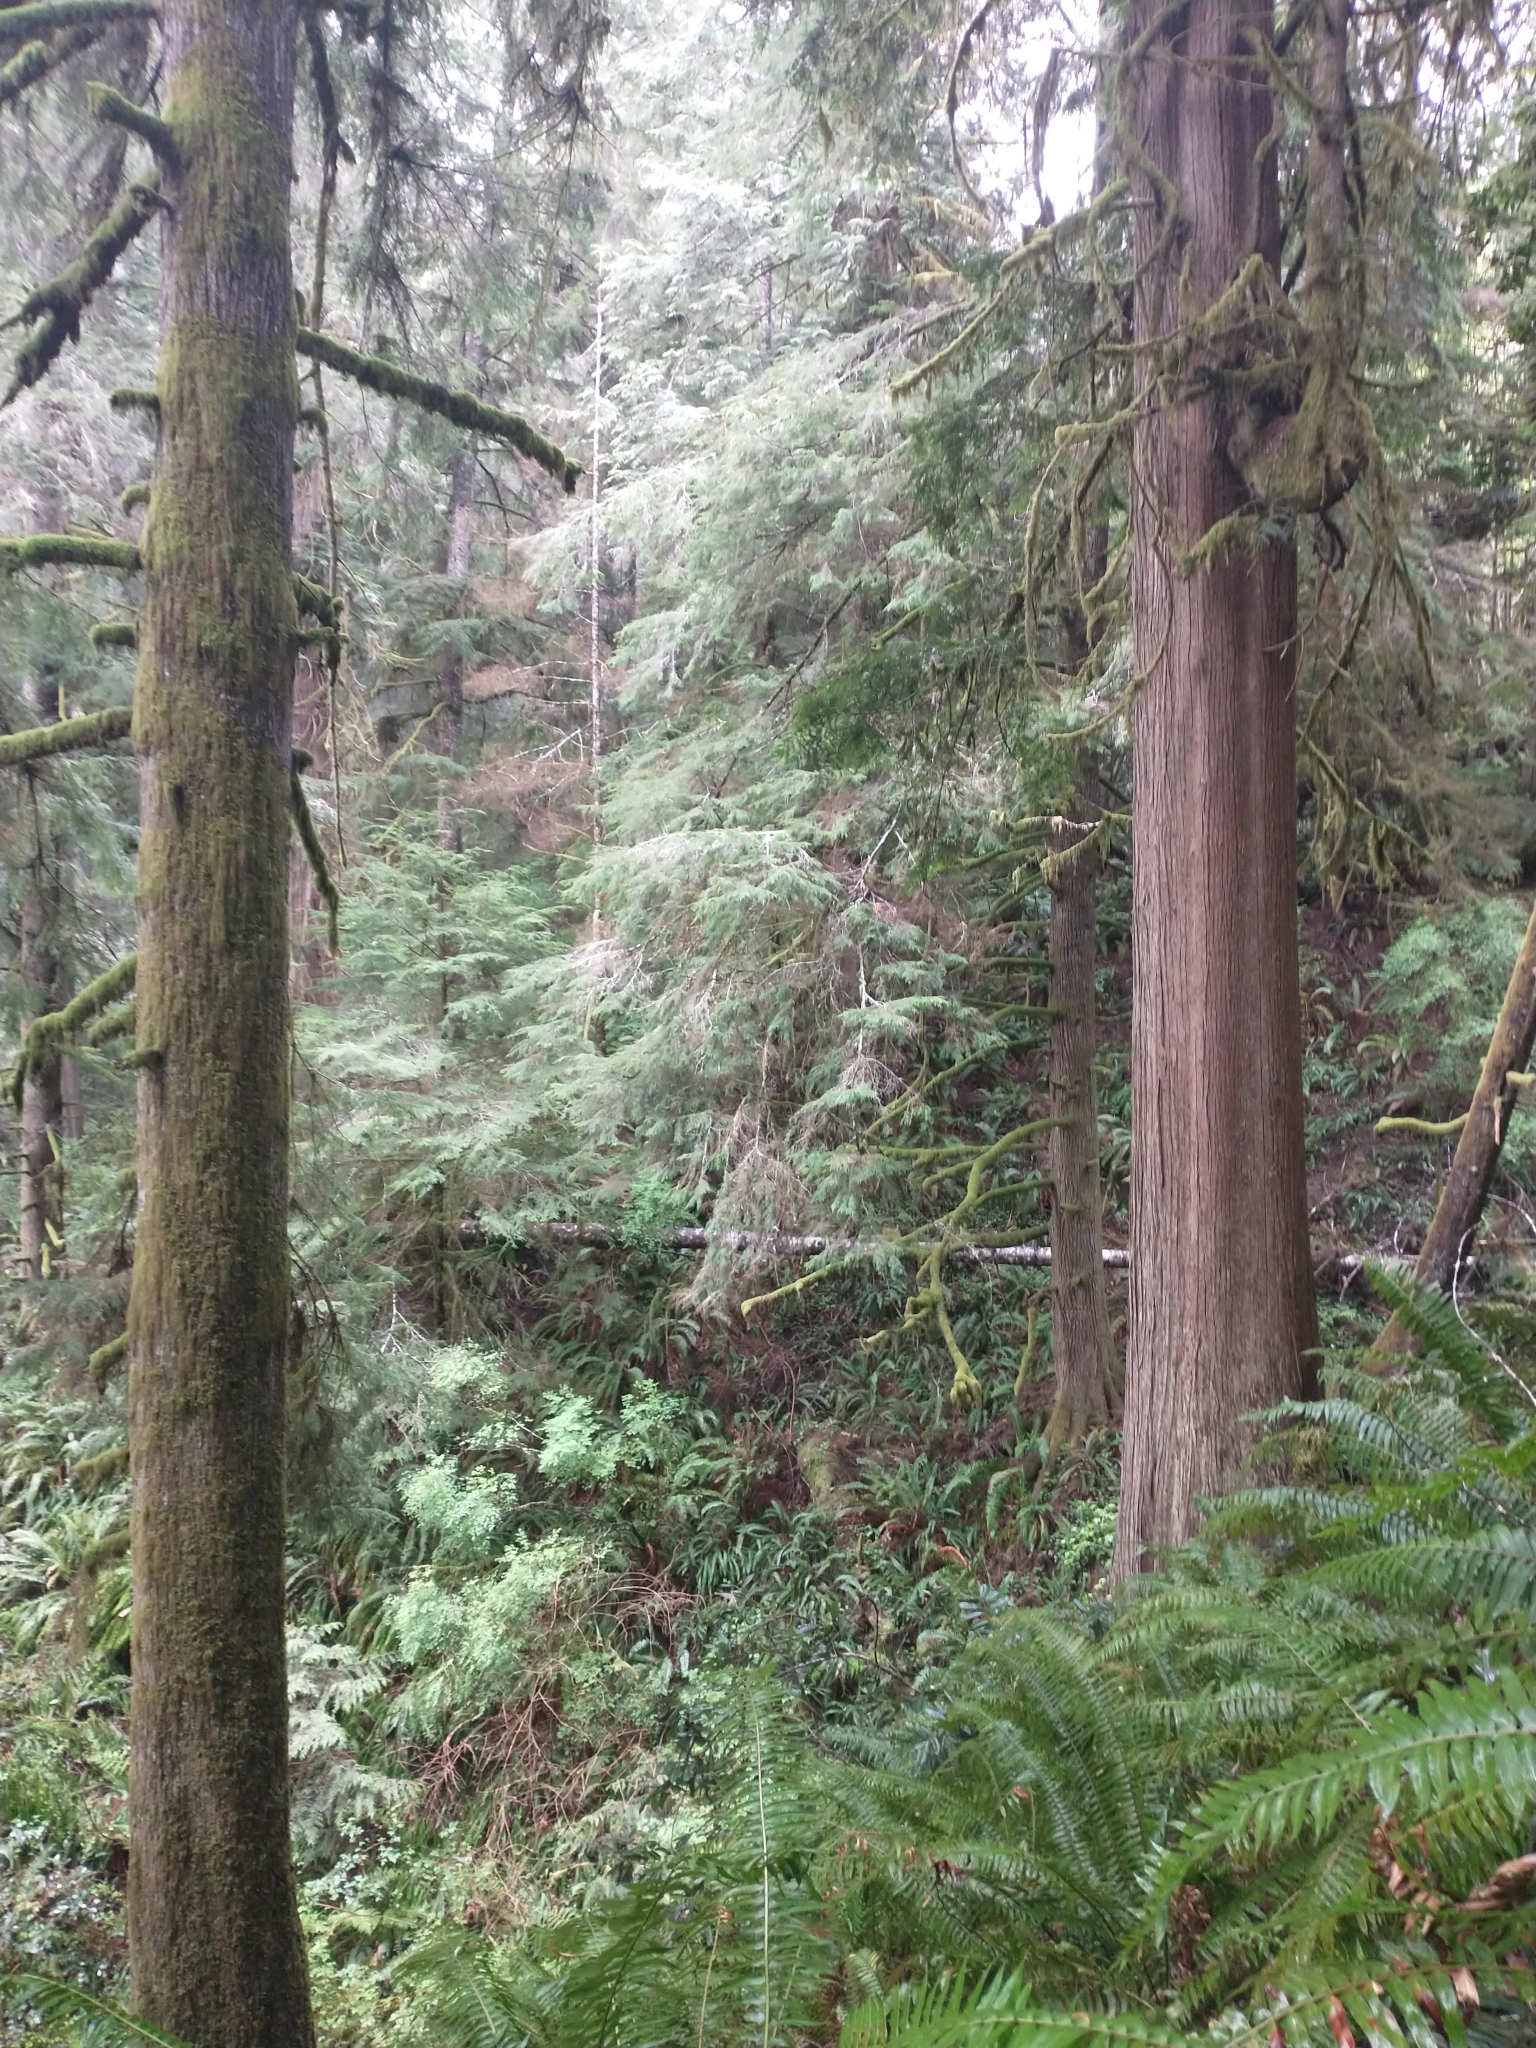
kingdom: Plantae
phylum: Tracheophyta
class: Polypodiopsida
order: Polypodiales
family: Dryopteridaceae
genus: Polystichum
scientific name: Polystichum munitum
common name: Western sword-fern
